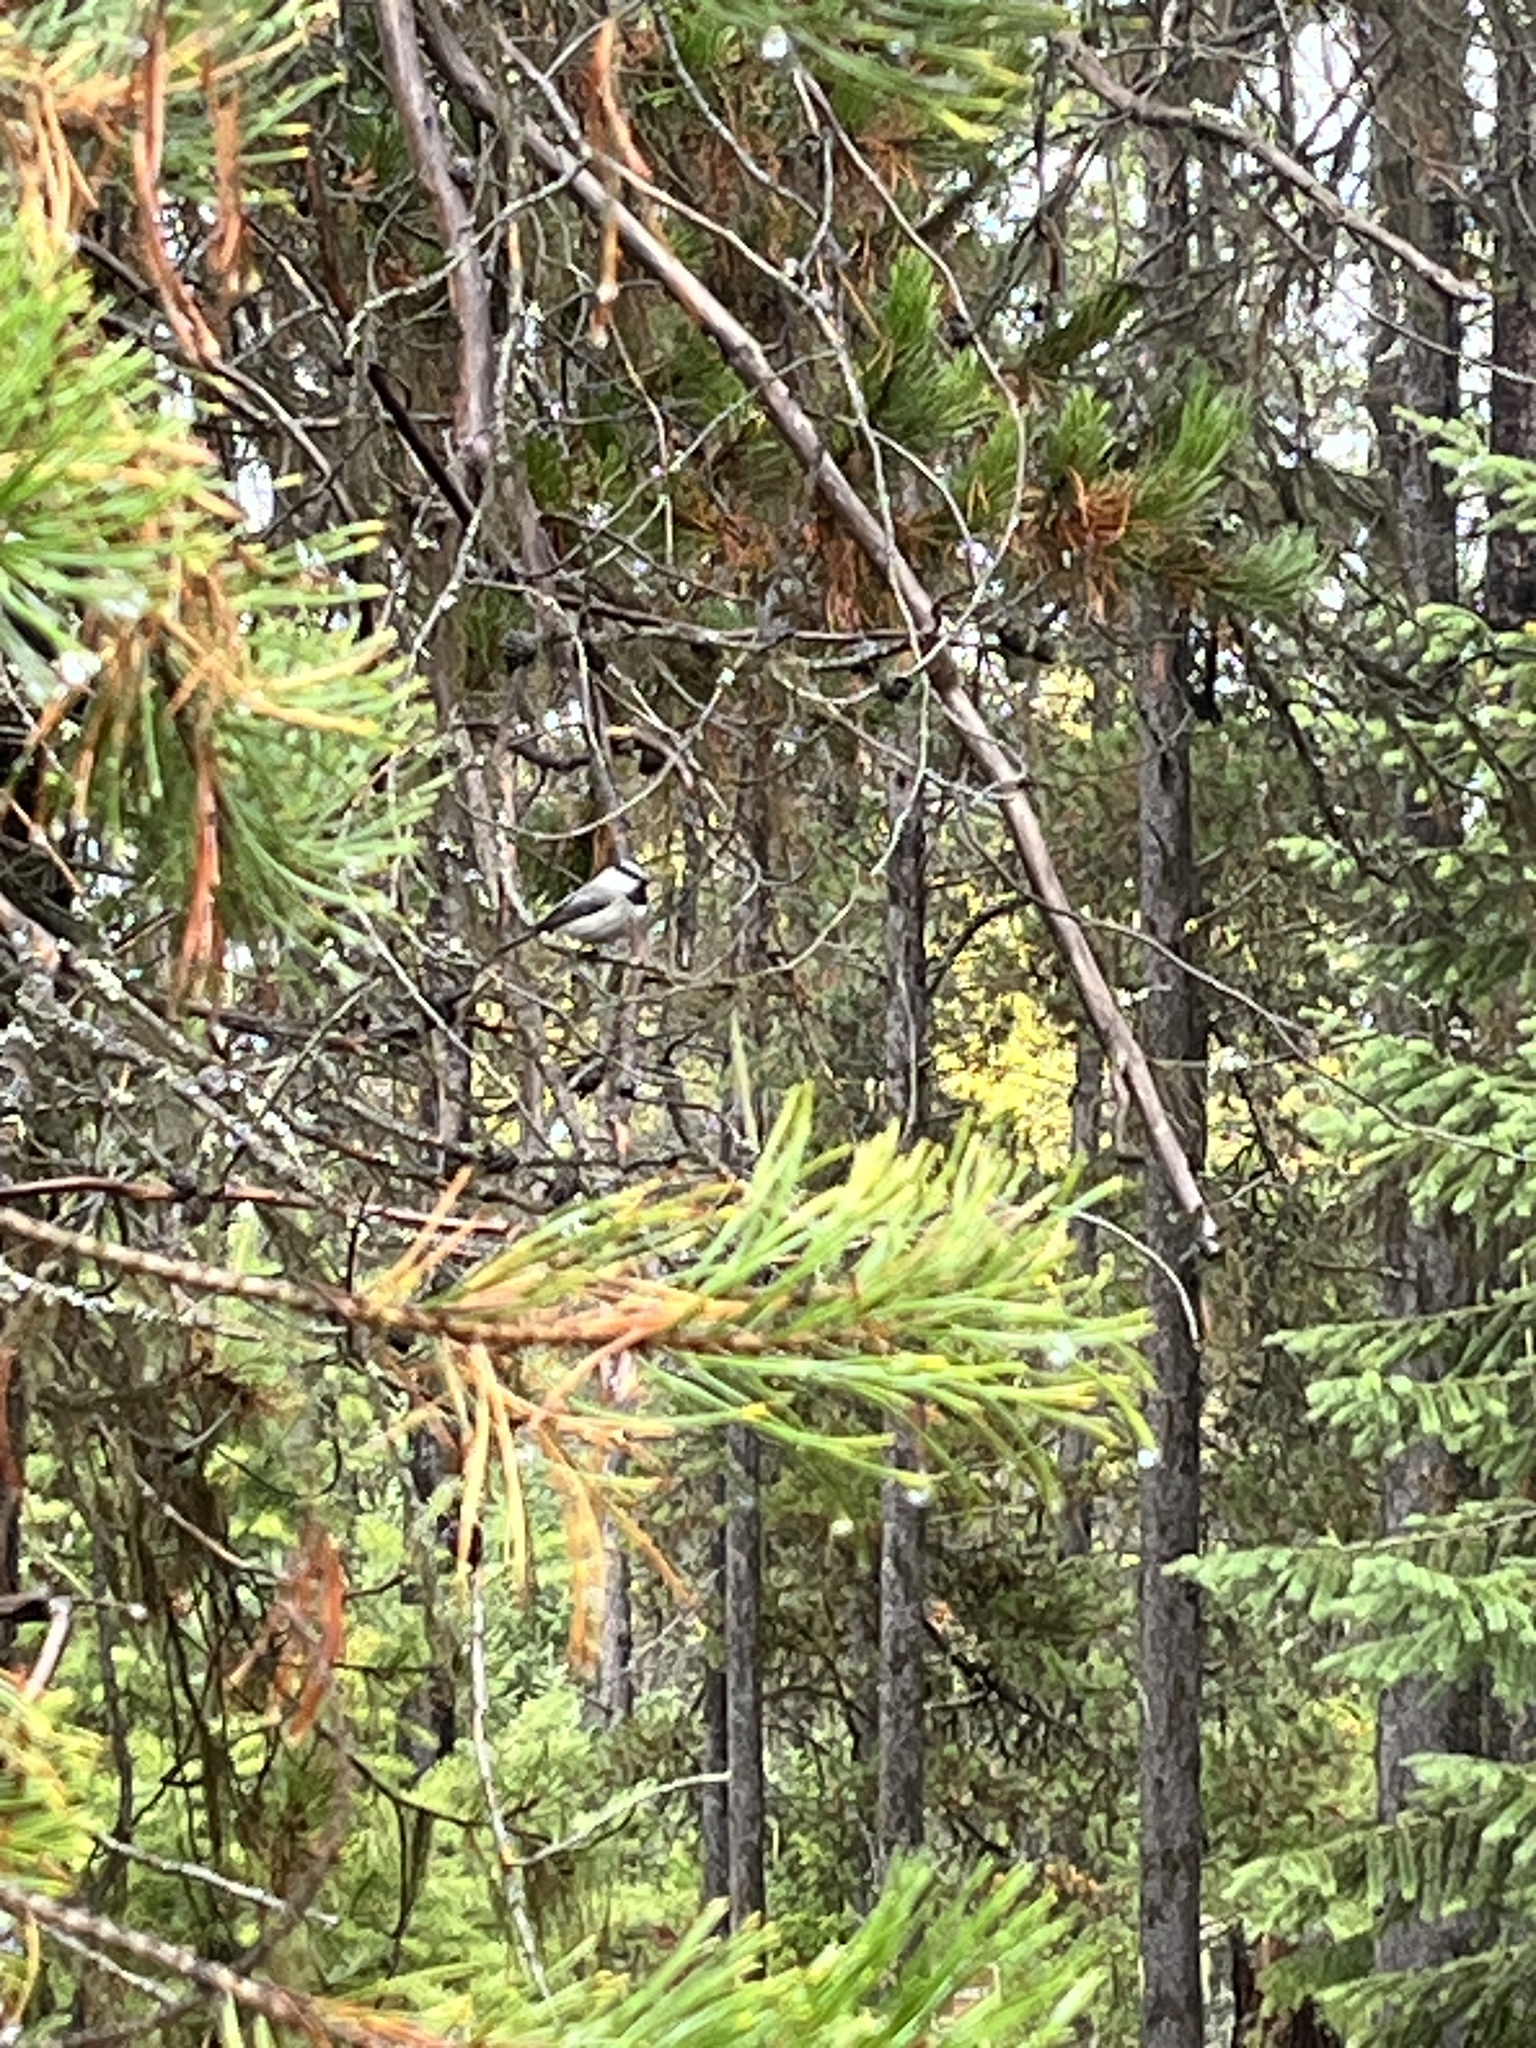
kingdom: Animalia
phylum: Chordata
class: Aves
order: Passeriformes
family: Paridae
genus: Poecile
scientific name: Poecile gambeli
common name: Mountain chickadee
